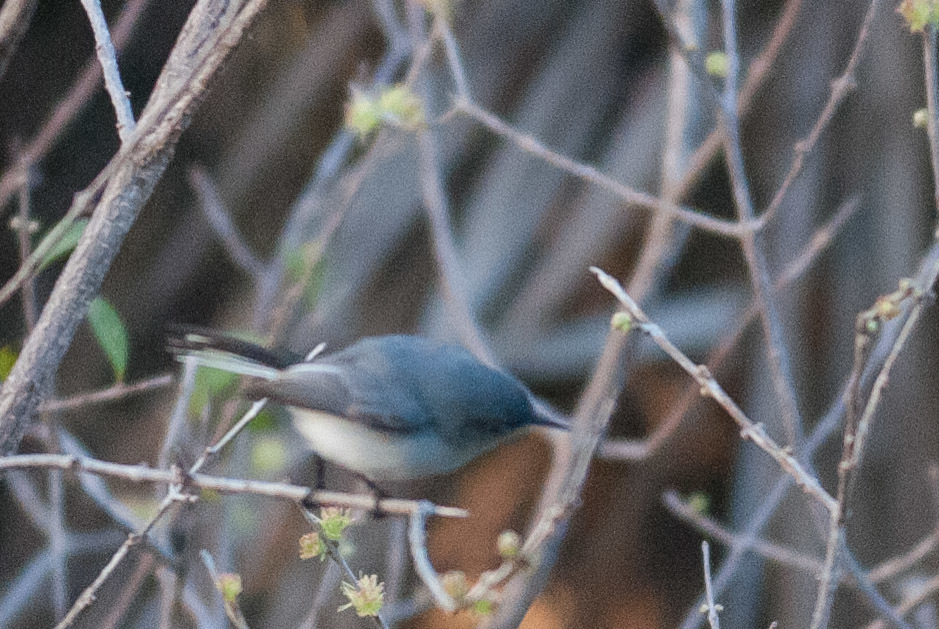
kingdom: Animalia
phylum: Chordata
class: Aves
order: Passeriformes
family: Polioptilidae
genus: Polioptila
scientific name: Polioptila caerulea
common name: Blue-gray gnatcatcher
